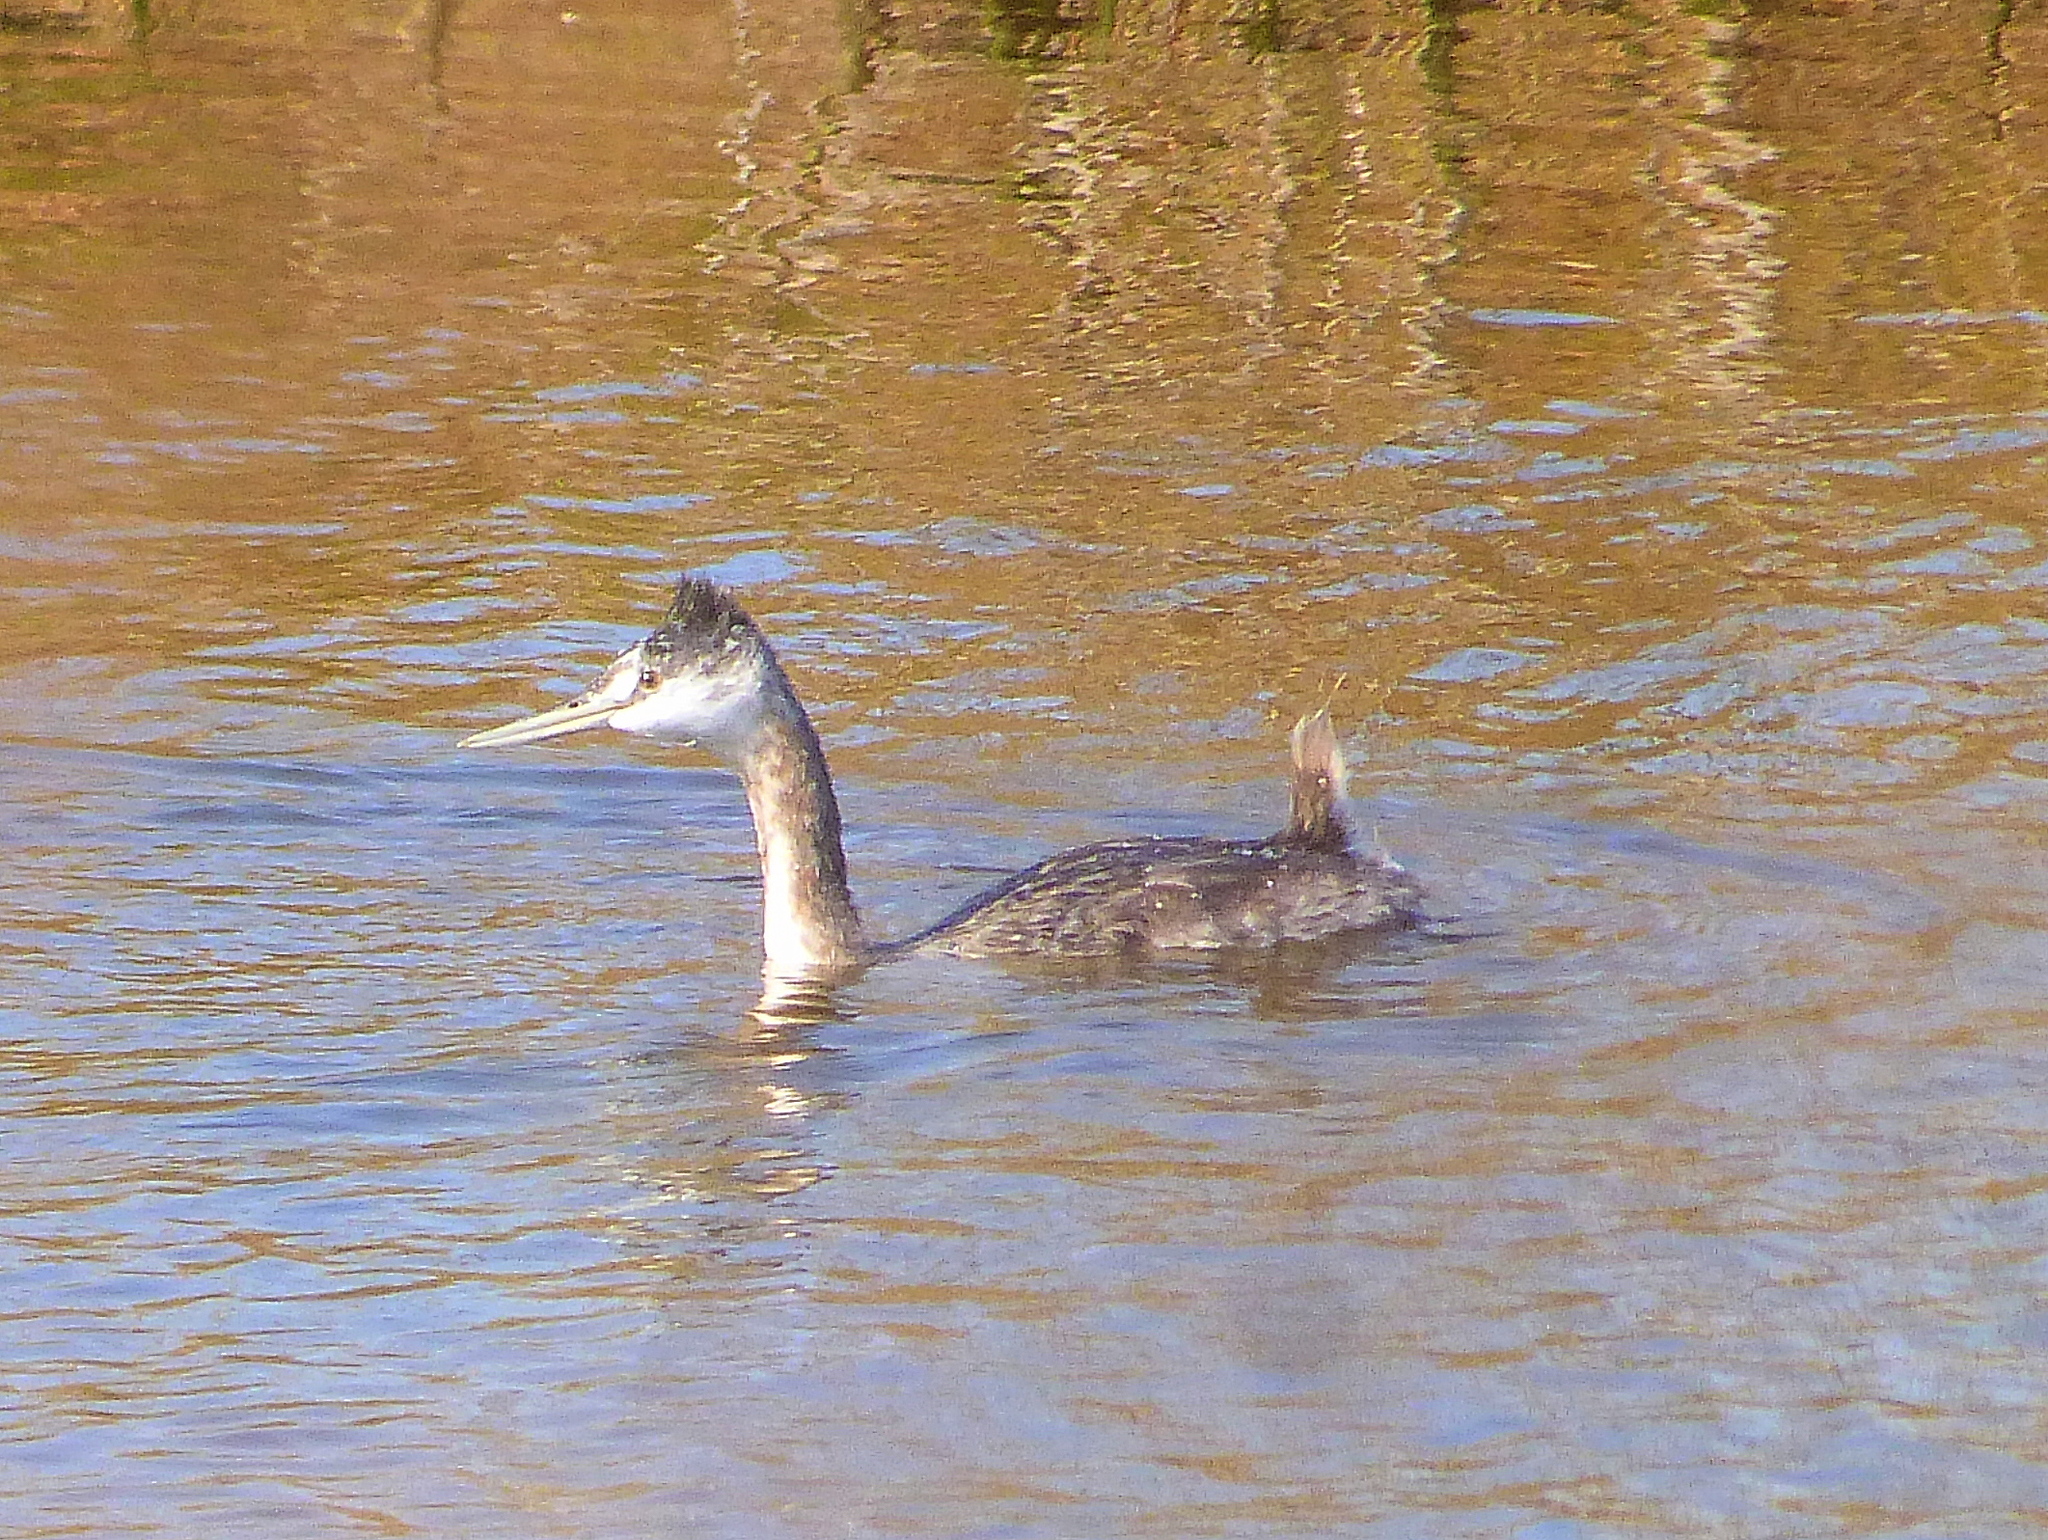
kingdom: Animalia
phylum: Chordata
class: Aves
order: Podicipediformes
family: Podicipedidae
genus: Podiceps
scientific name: Podiceps major
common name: Great grebe
